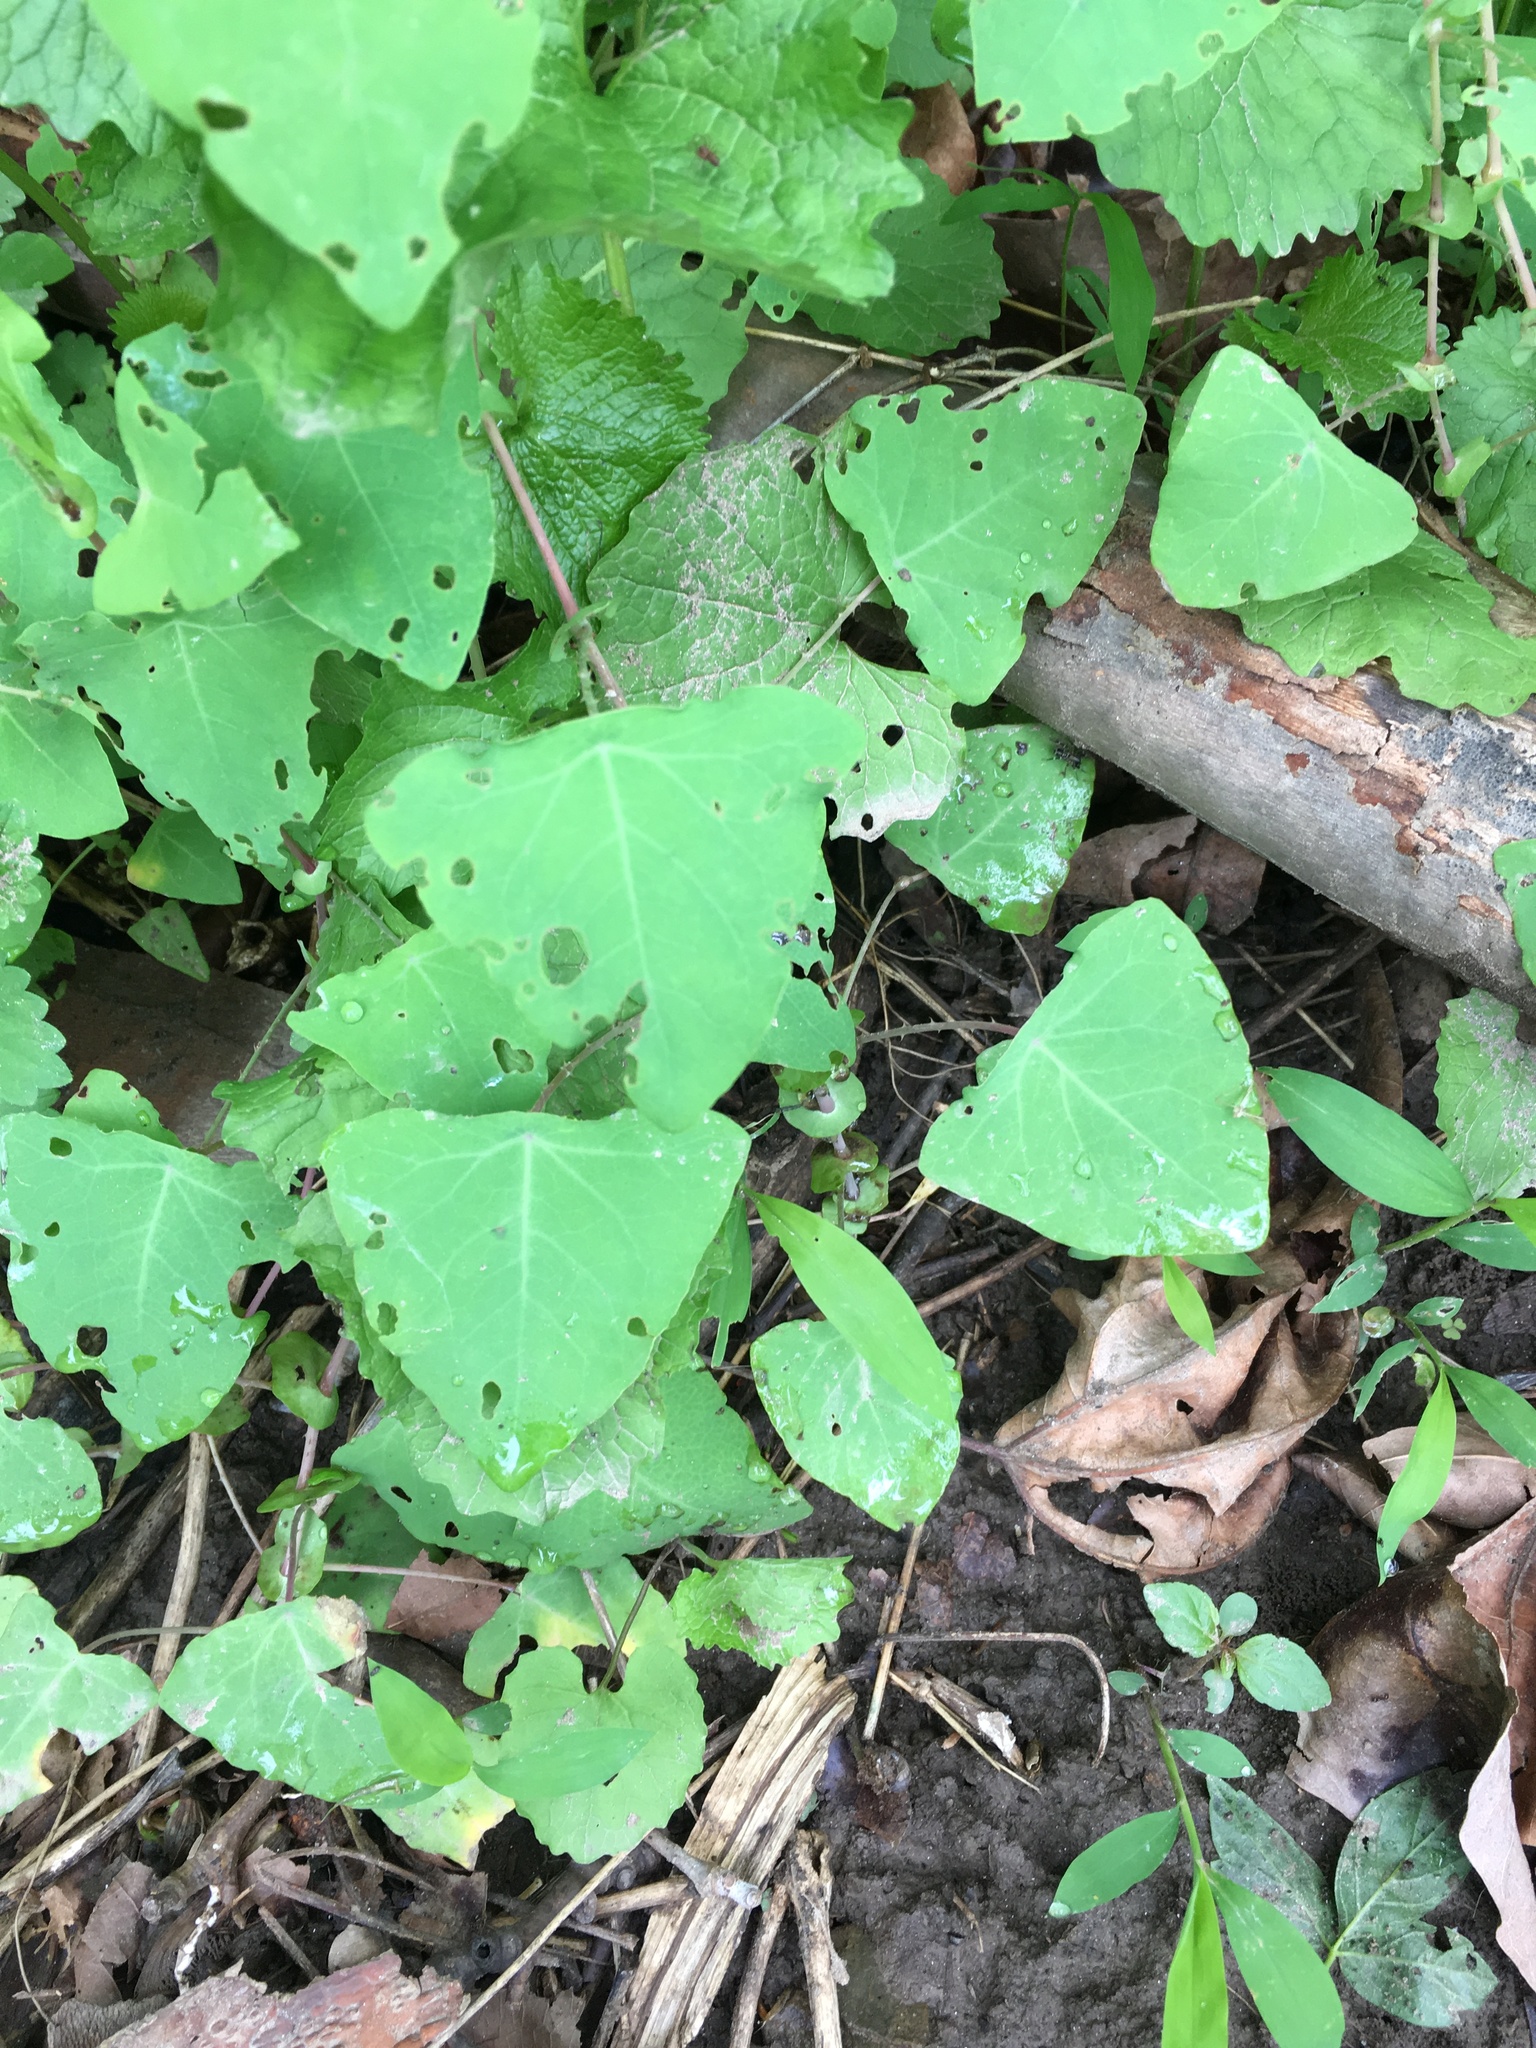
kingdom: Plantae
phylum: Tracheophyta
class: Magnoliopsida
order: Caryophyllales
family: Polygonaceae
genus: Persicaria
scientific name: Persicaria perfoliata
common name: Asiatic tearthumb
